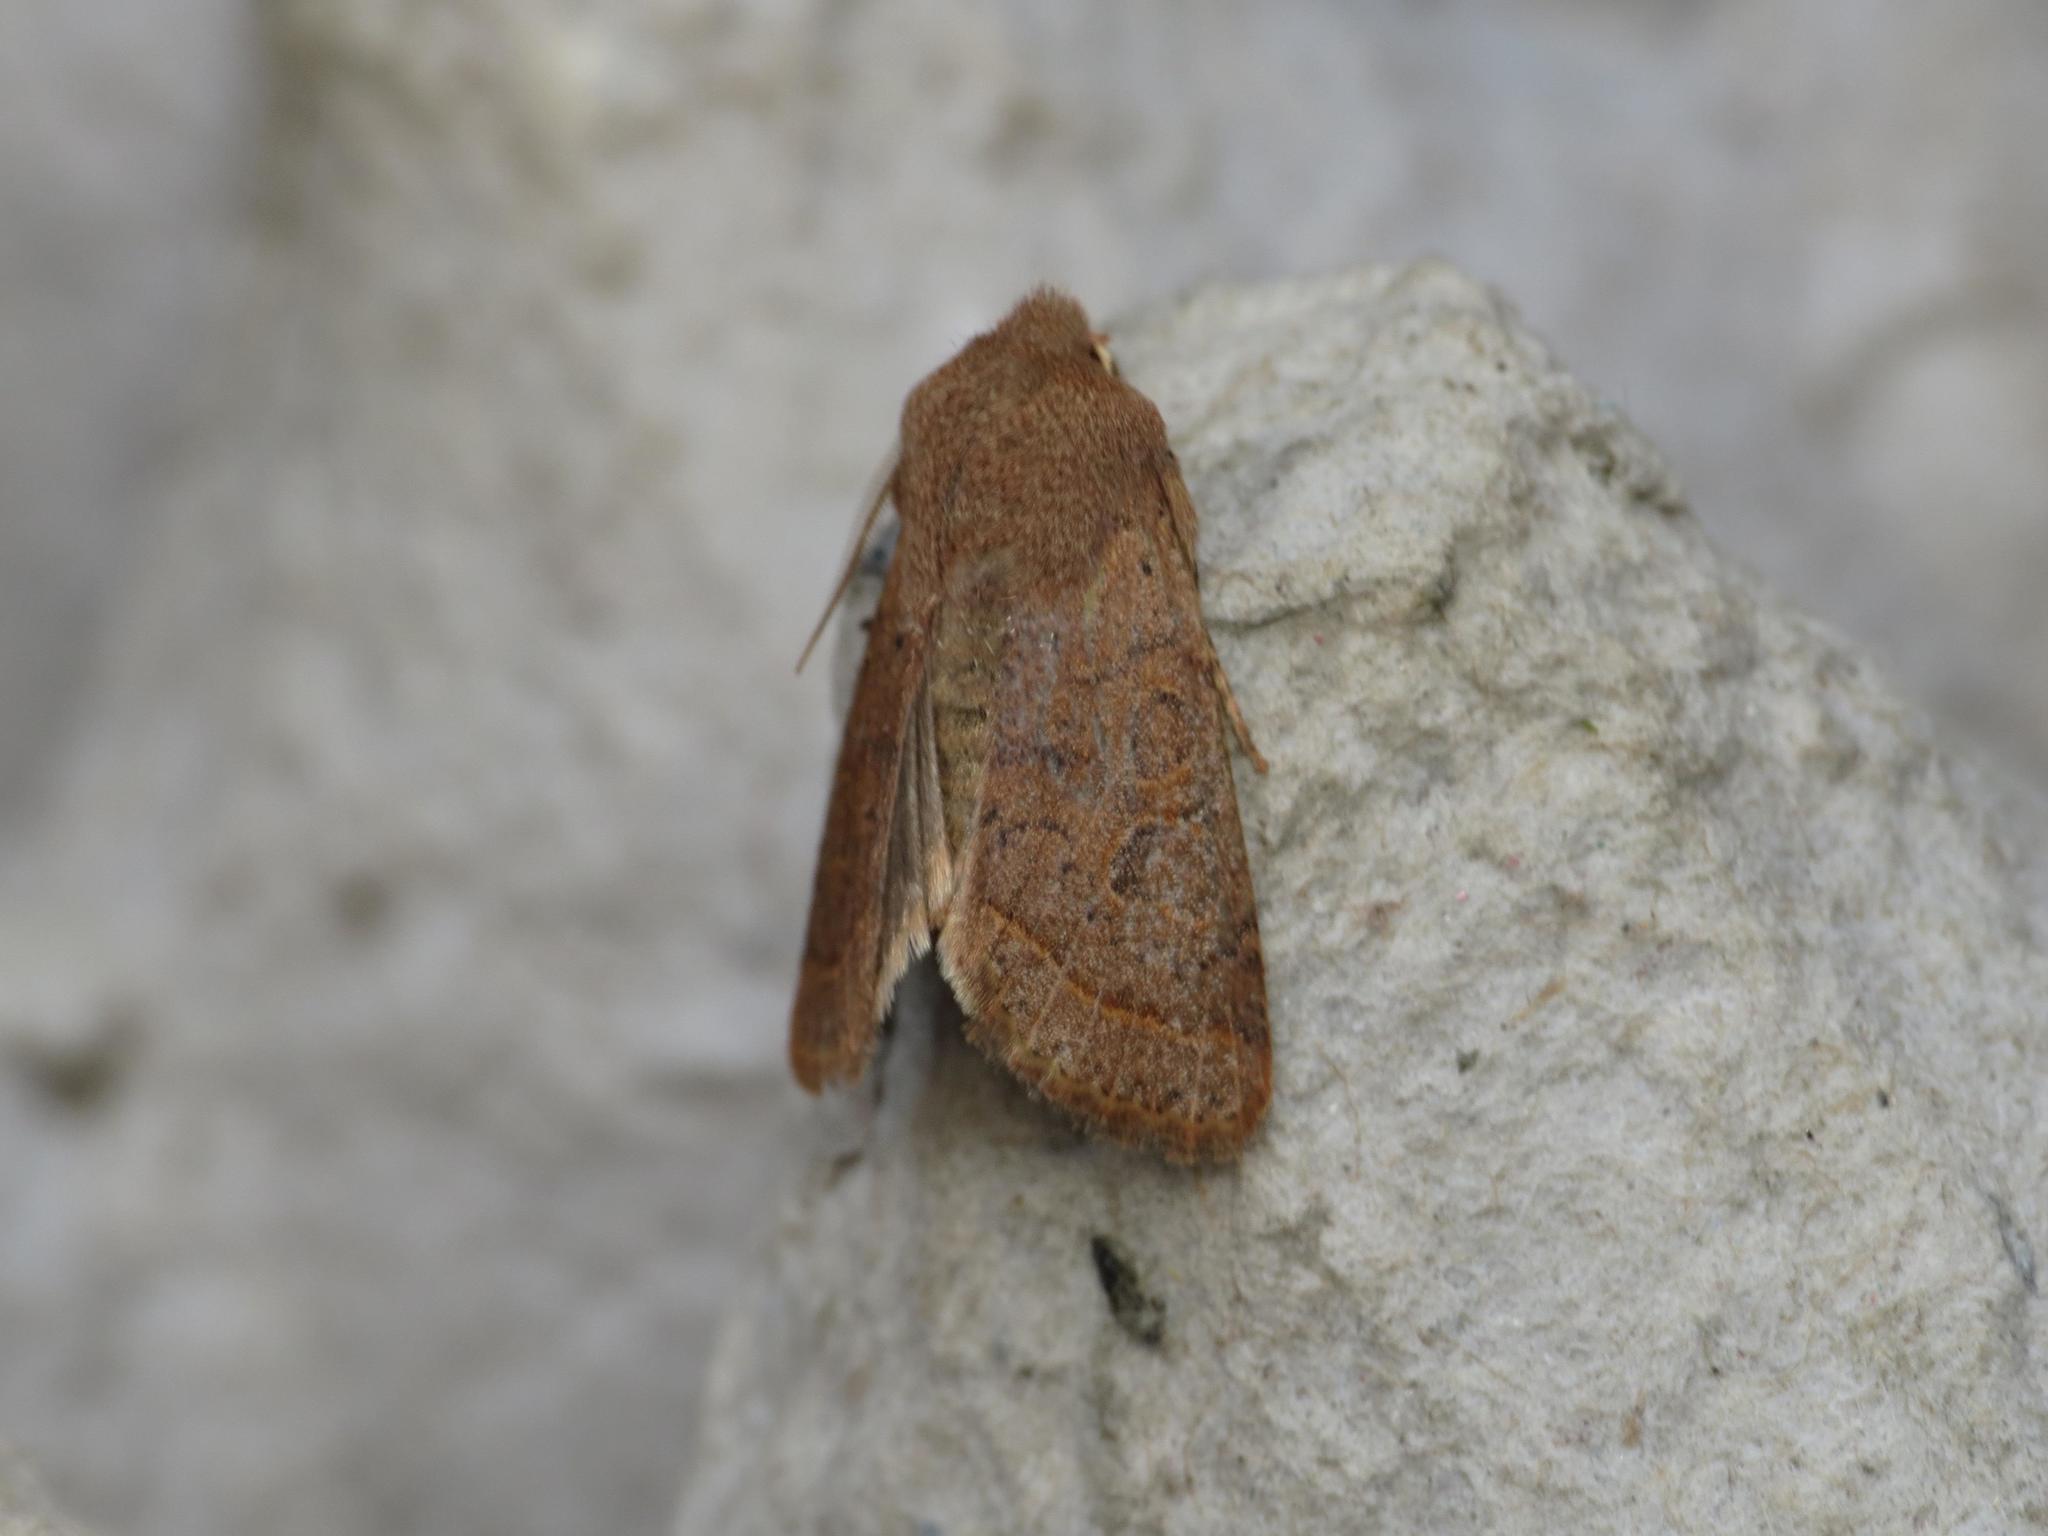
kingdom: Animalia
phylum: Arthropoda
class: Insecta
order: Lepidoptera
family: Noctuidae
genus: Orthosia
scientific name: Orthosia cerasi
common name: Common quaker
